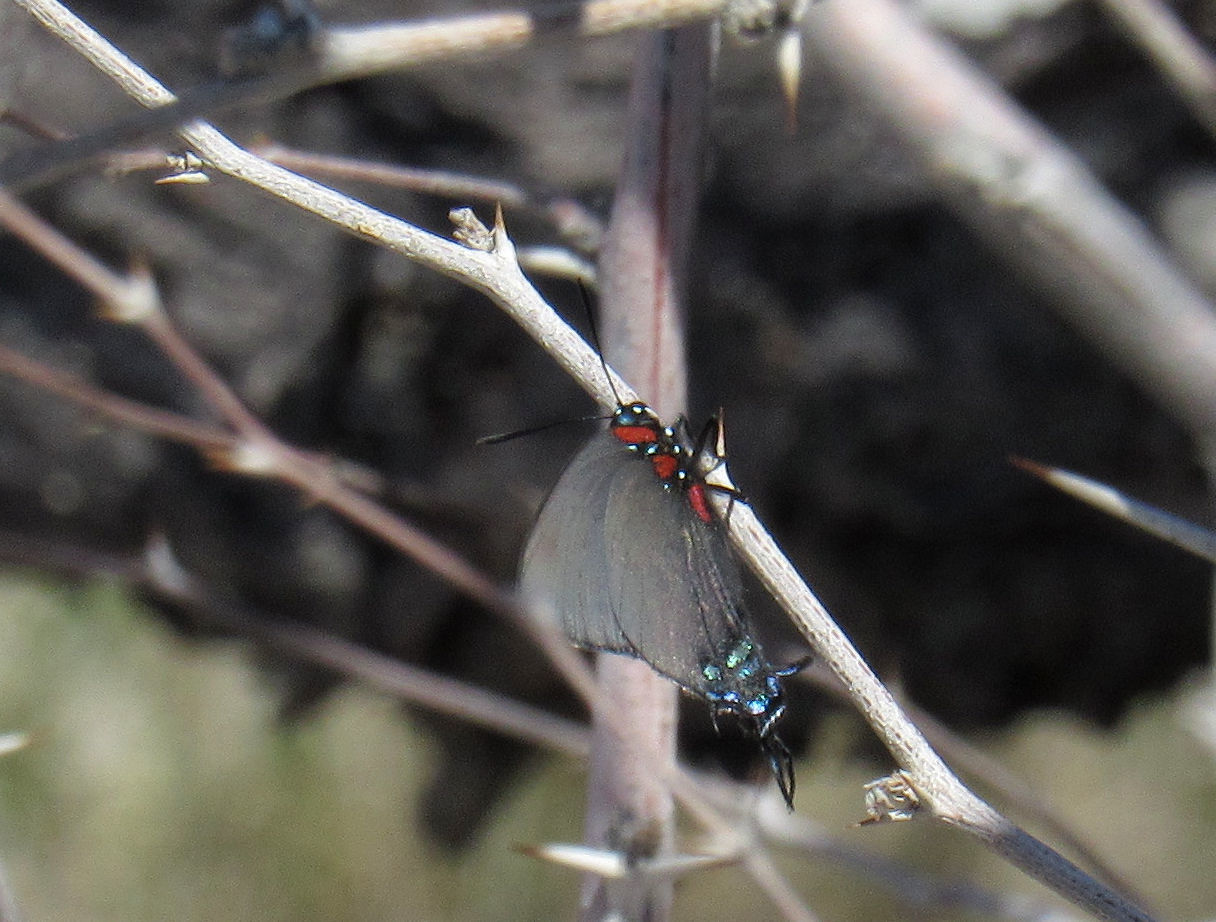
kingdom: Animalia
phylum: Arthropoda
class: Insecta
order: Lepidoptera
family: Lycaenidae
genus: Atlides
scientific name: Atlides halesus
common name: Great purple hairstreak
